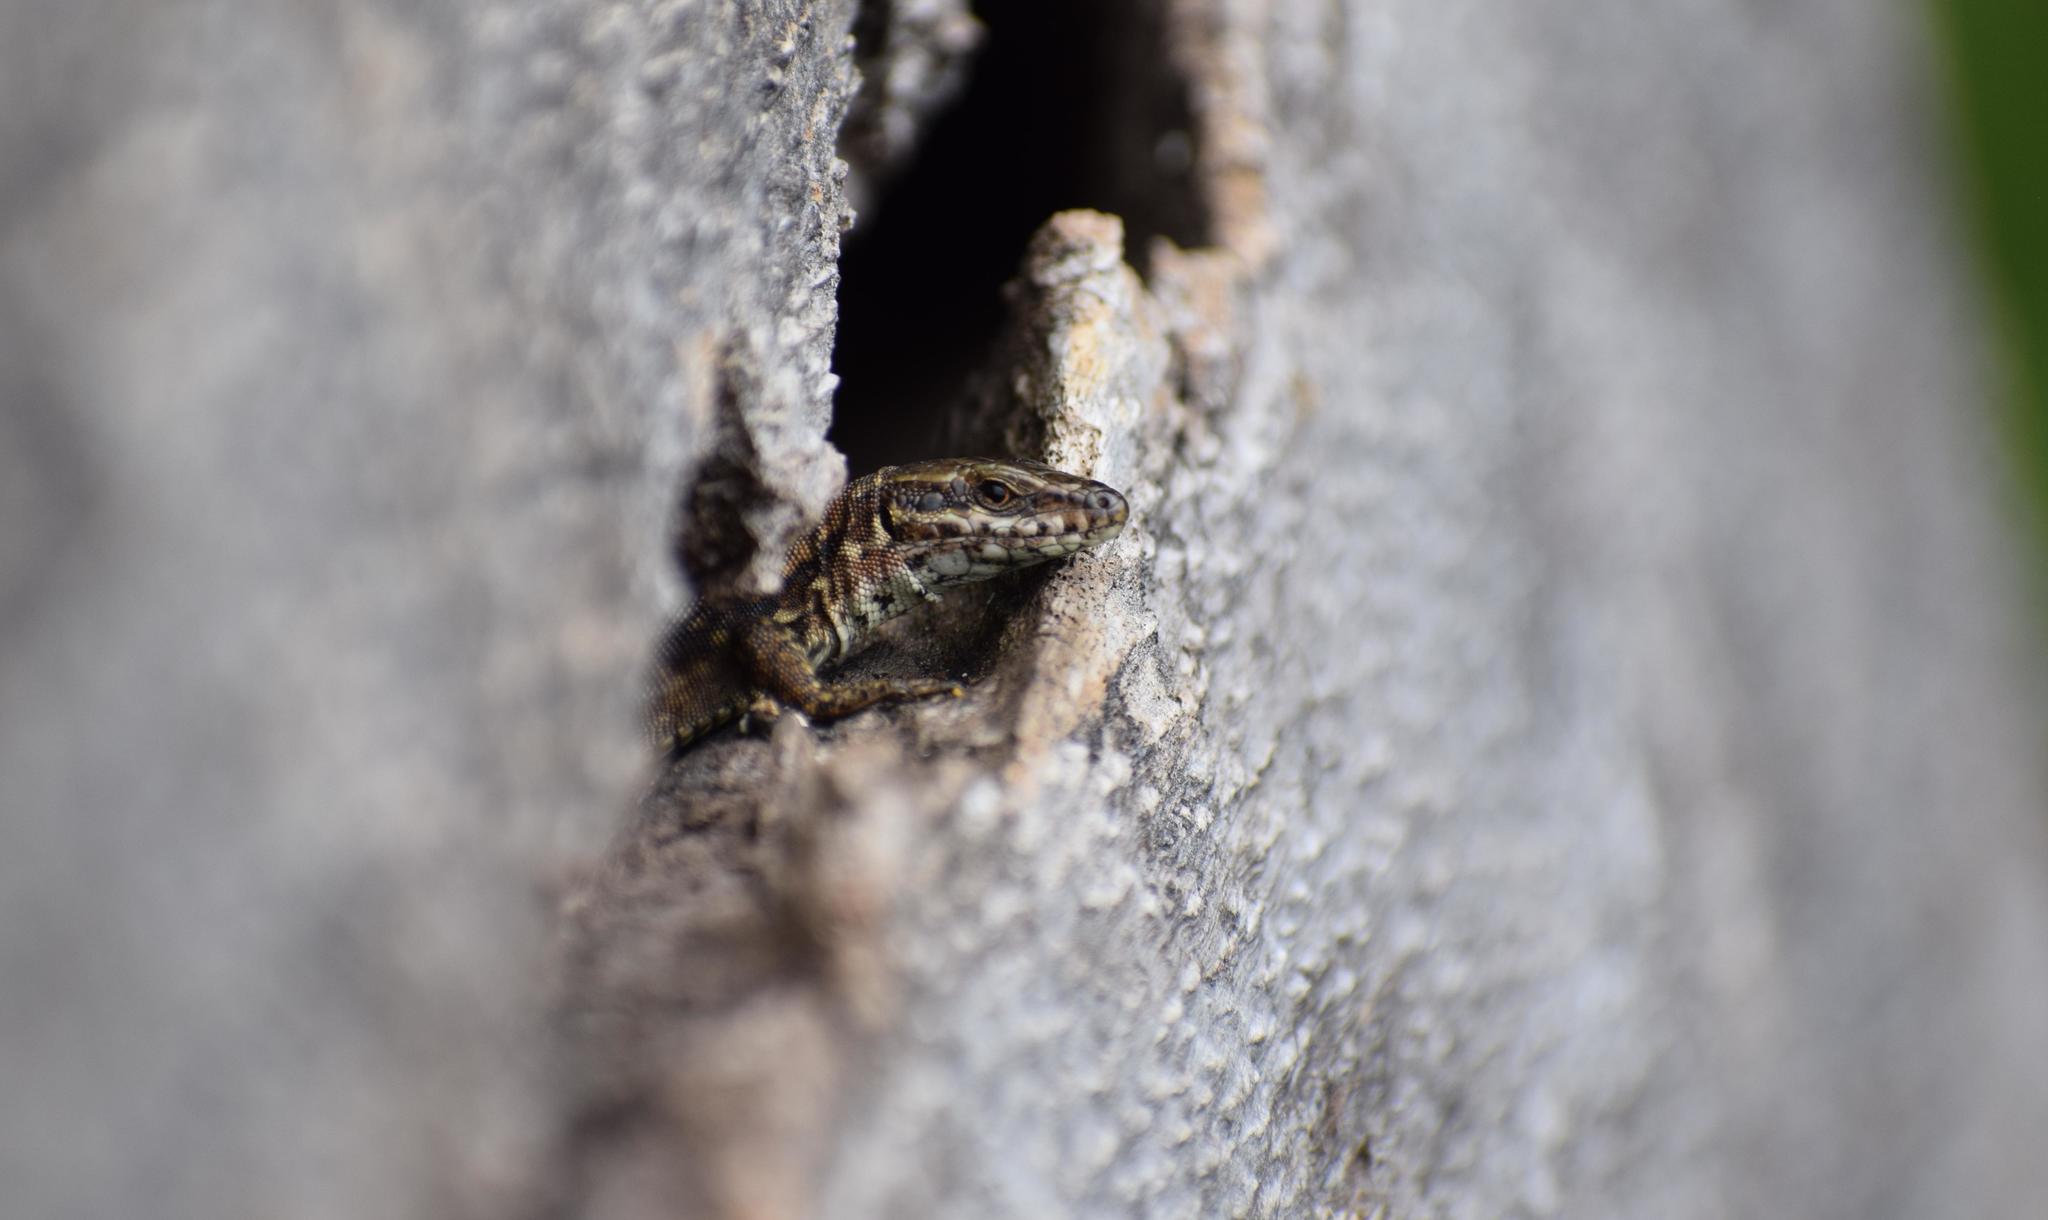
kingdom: Animalia
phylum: Chordata
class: Squamata
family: Lacertidae
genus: Podarcis
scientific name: Podarcis muralis
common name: Common wall lizard
